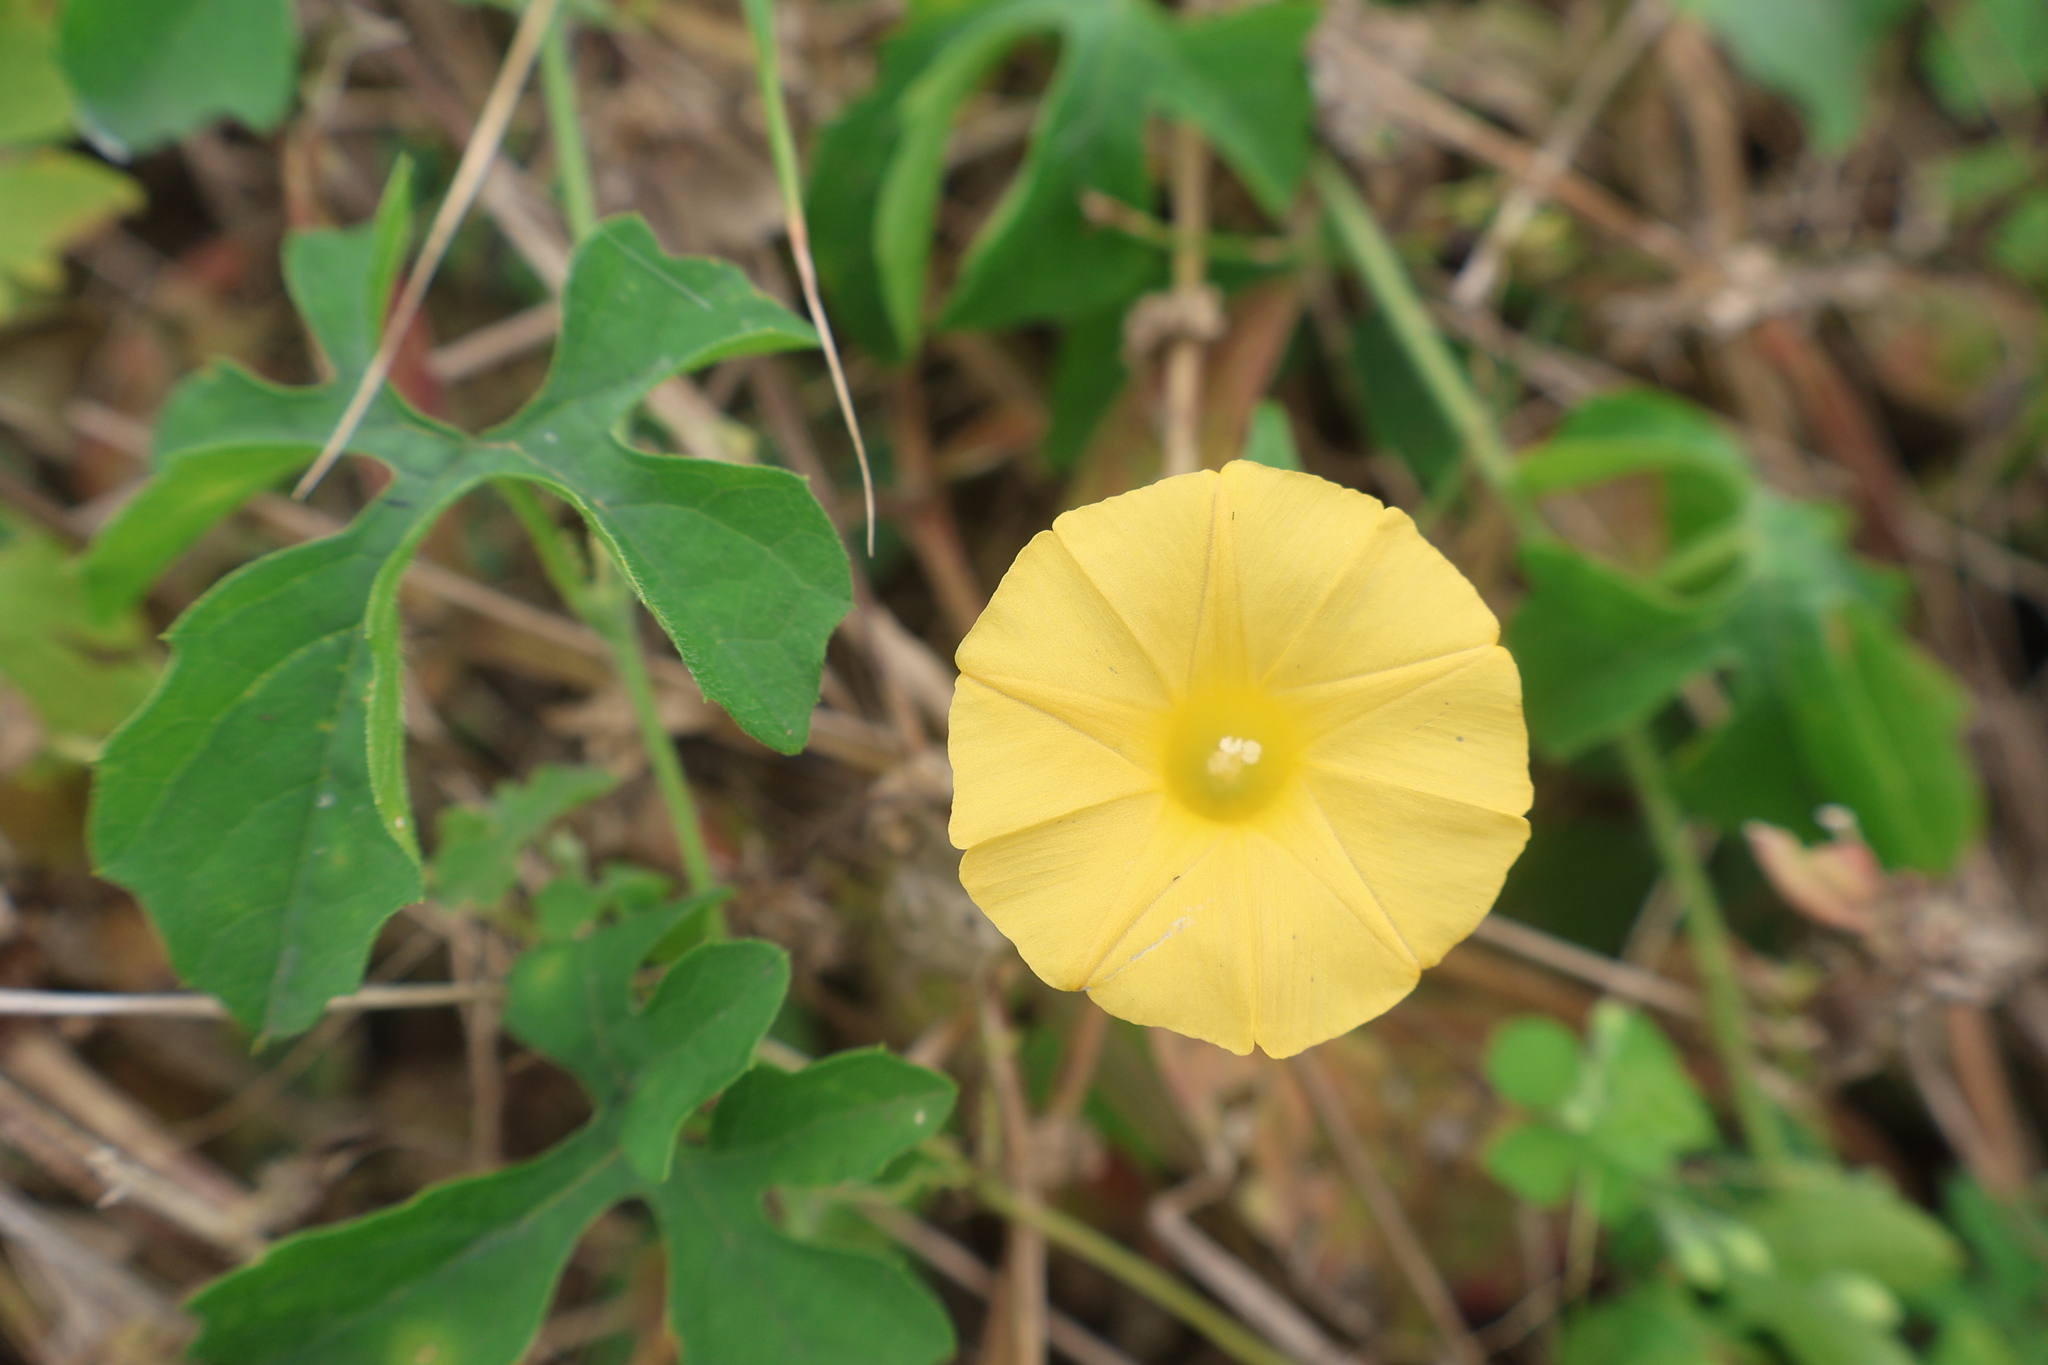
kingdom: Plantae
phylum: Tracheophyta
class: Magnoliopsida
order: Solanales
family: Convolvulaceae
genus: Ipomoea
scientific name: Ipomoea microsepala
